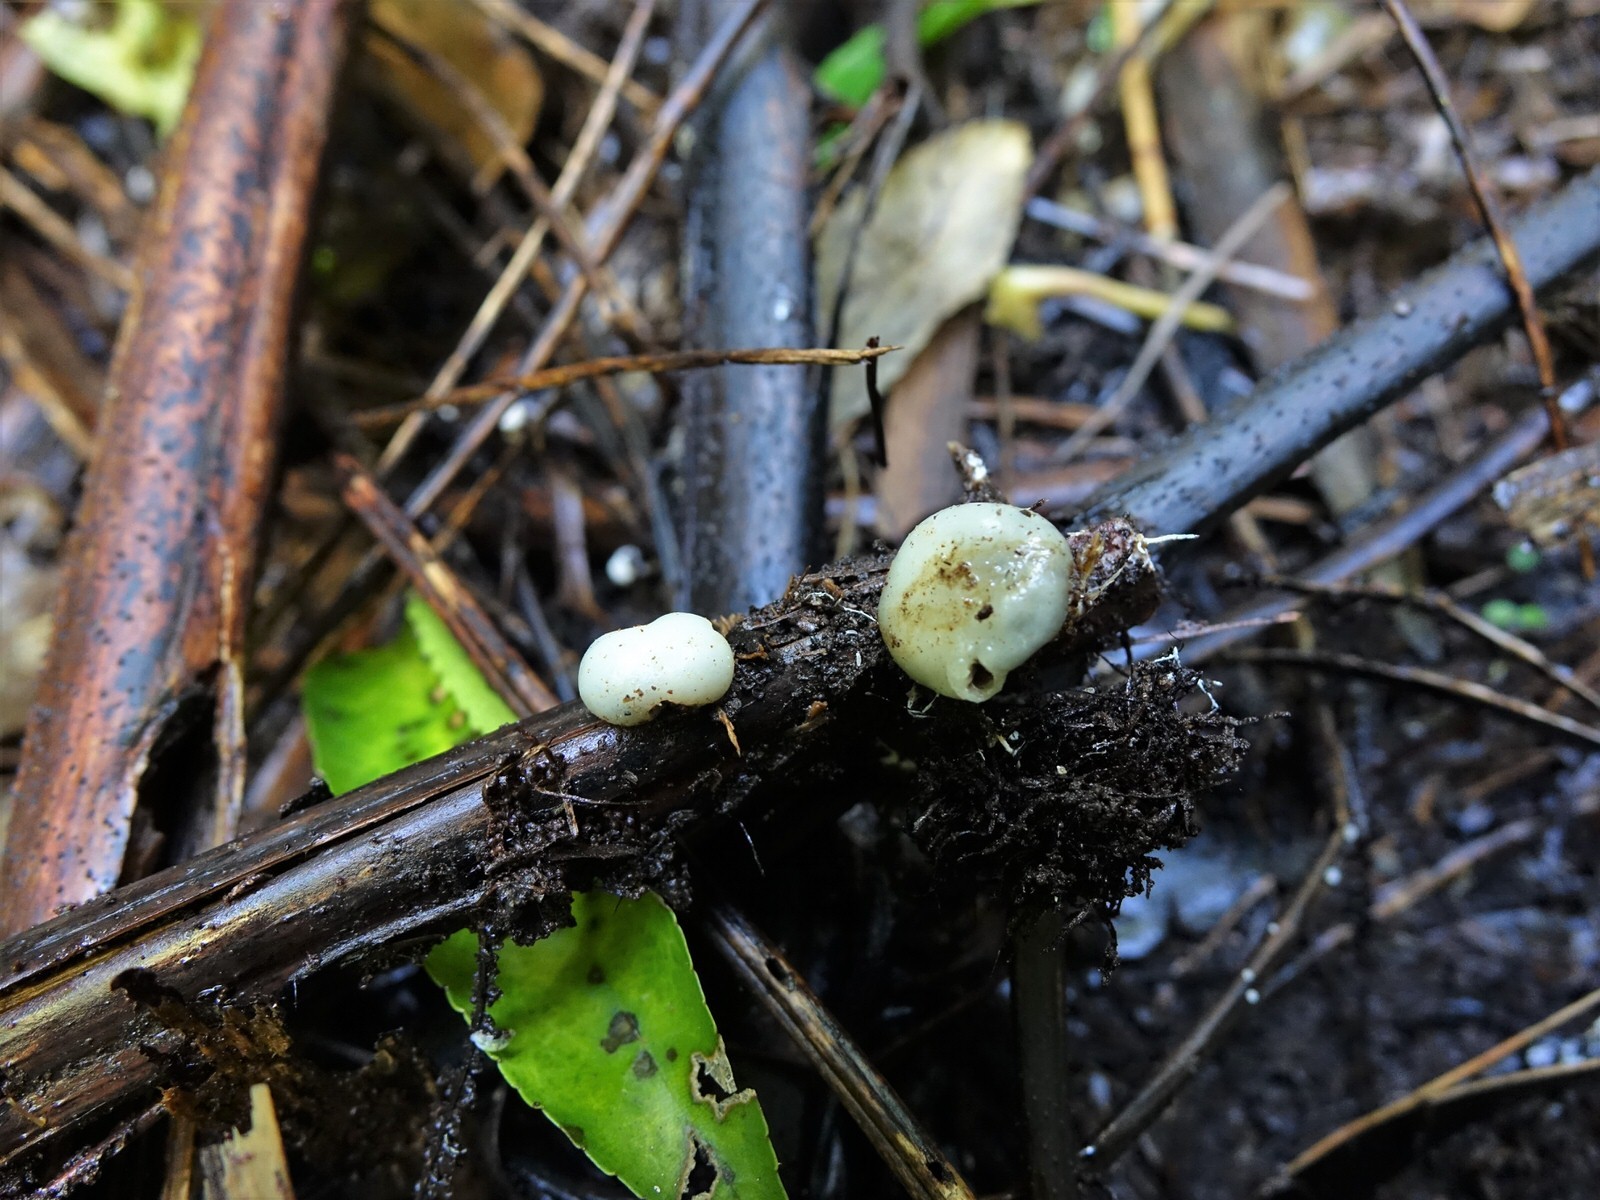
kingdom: Fungi
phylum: Basidiomycota
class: Agaricomycetes
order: Agaricales
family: Hymenogastraceae
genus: Psilocybe
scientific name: Psilocybe weraroa
